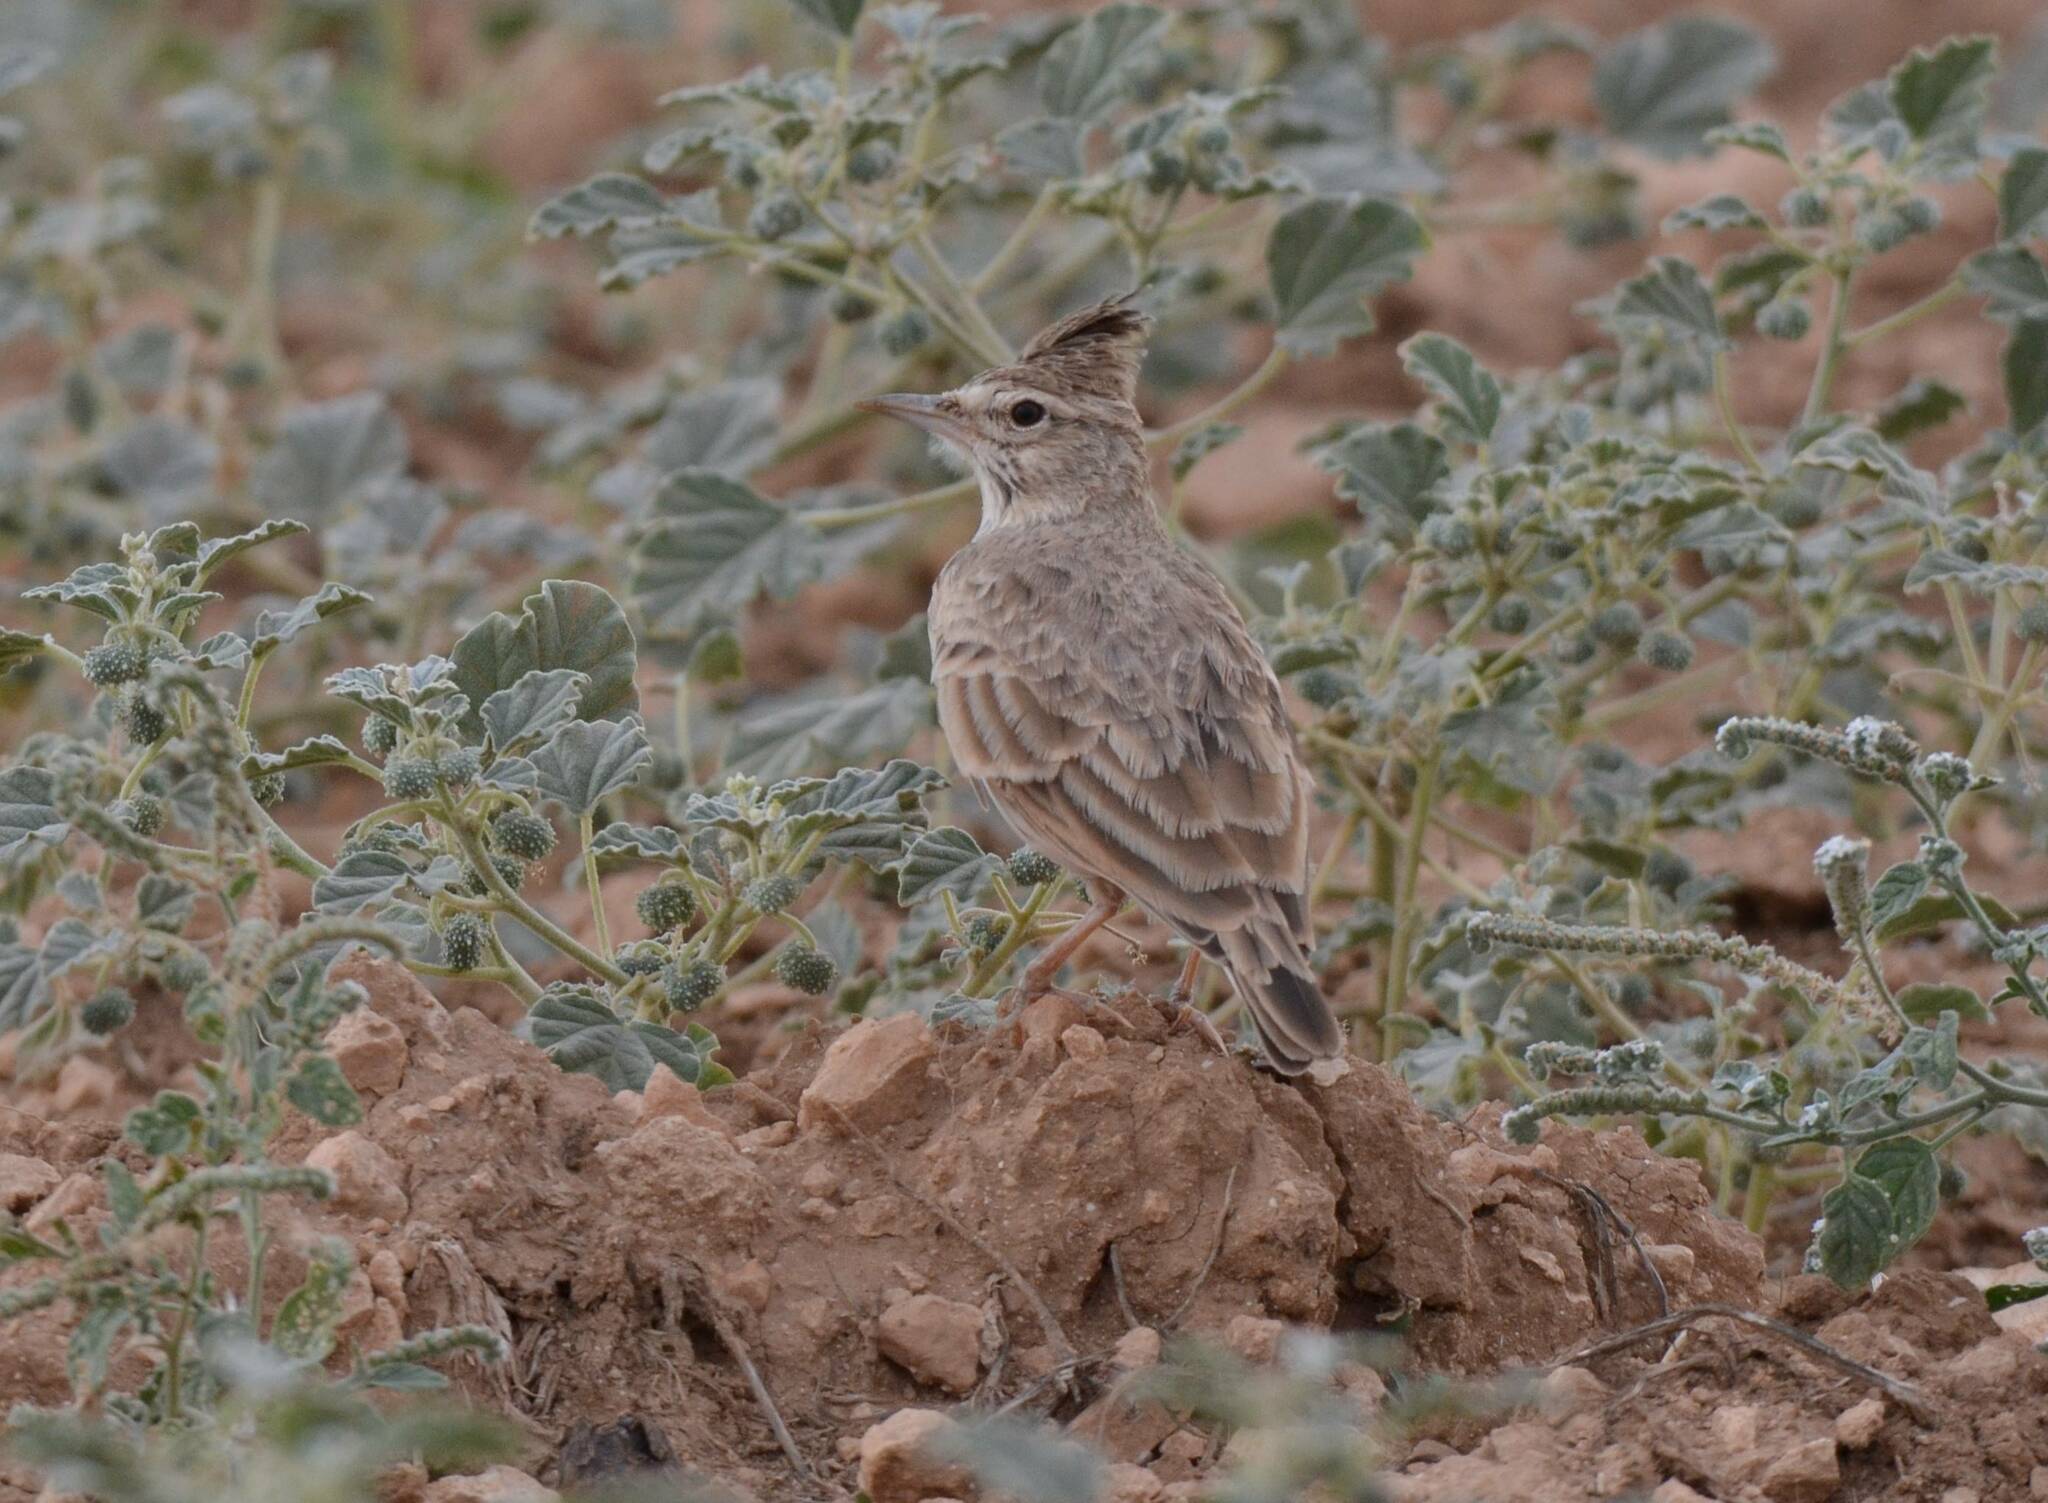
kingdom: Animalia
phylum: Chordata
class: Aves
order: Passeriformes
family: Alaudidae
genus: Galerida
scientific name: Galerida cristata
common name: Crested lark
